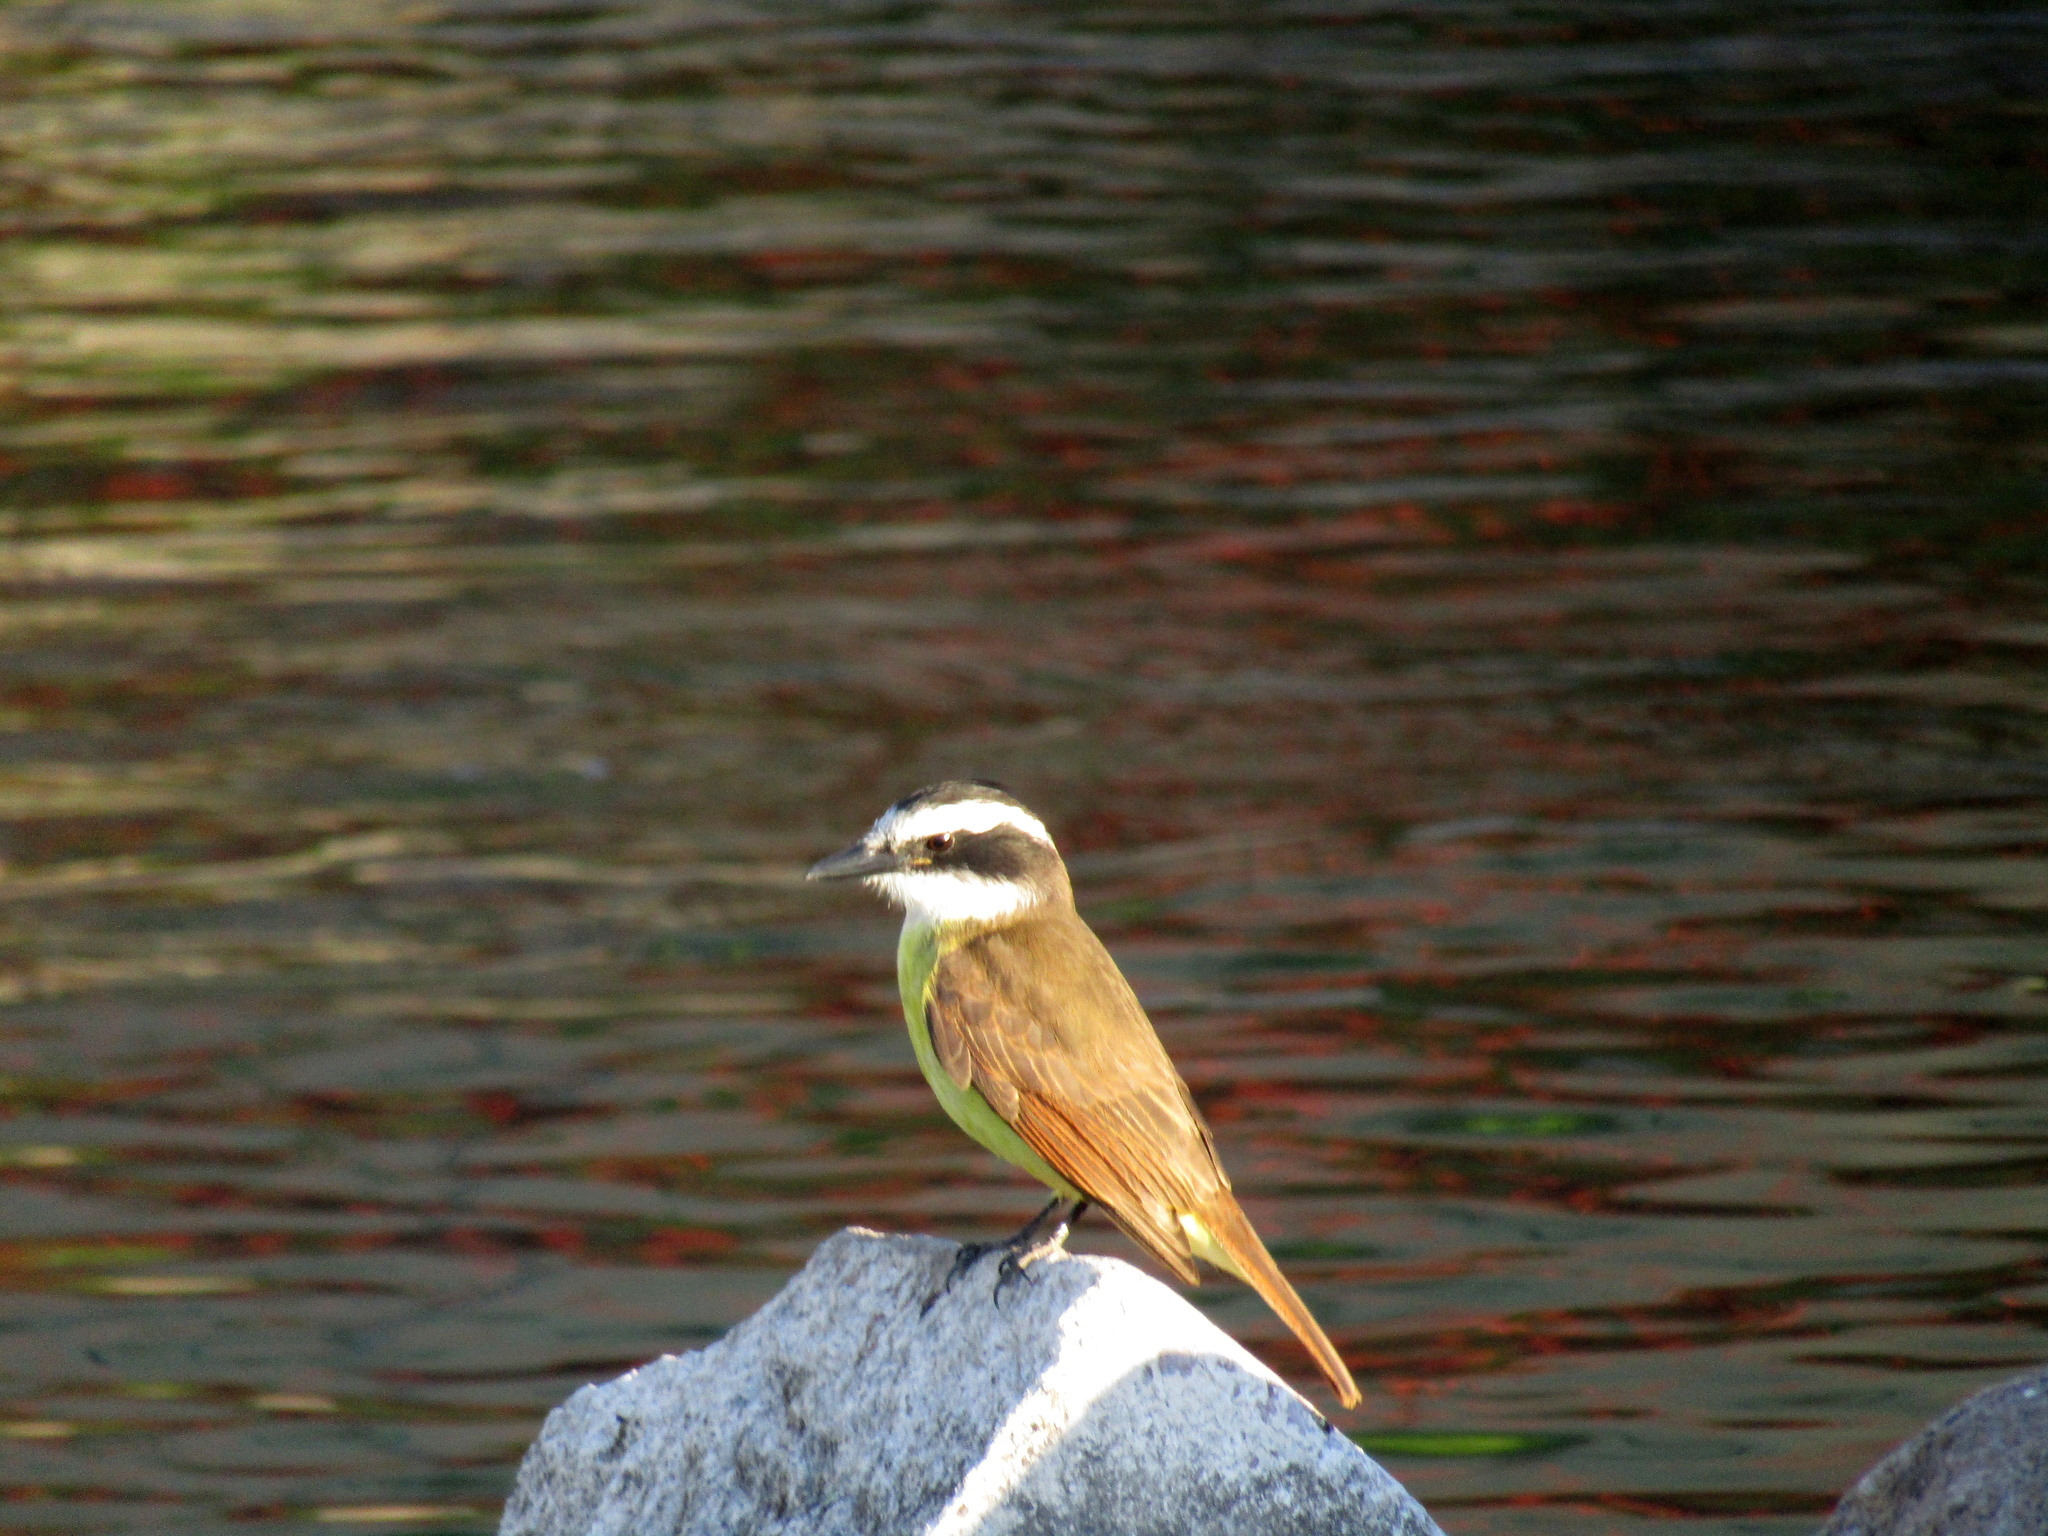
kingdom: Animalia
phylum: Chordata
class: Aves
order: Passeriformes
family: Tyrannidae
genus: Pitangus
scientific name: Pitangus sulphuratus
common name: Great kiskadee
